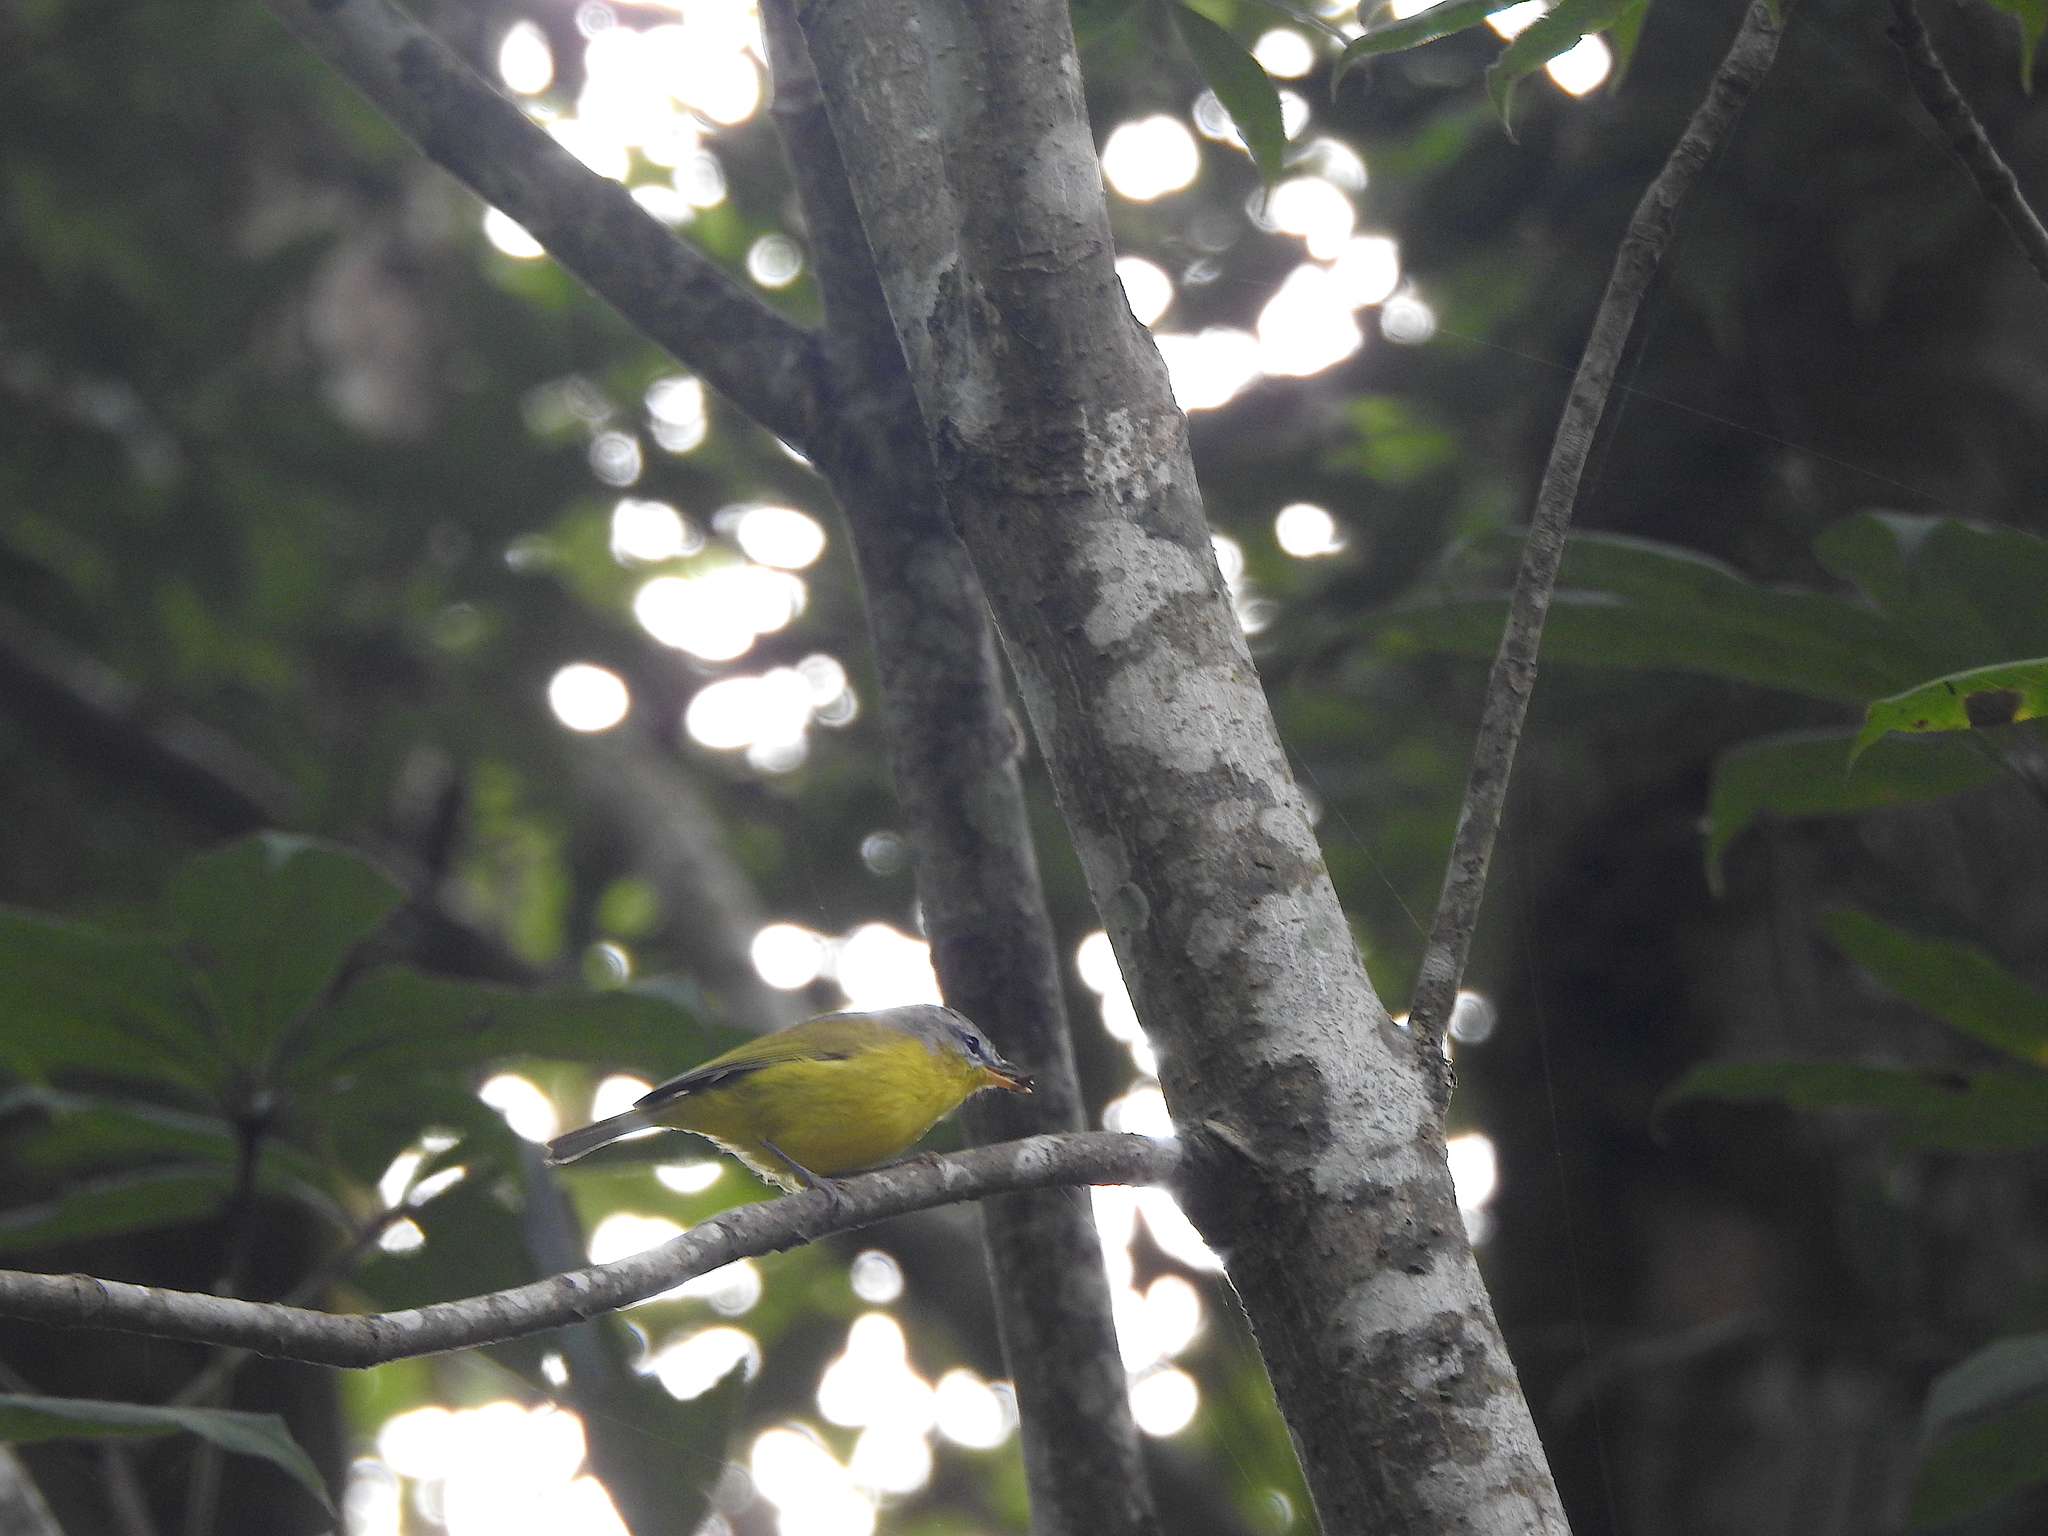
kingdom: Animalia
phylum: Chordata
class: Aves
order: Passeriformes
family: Phylloscopidae
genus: Phylloscopus
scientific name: Phylloscopus xanthoschistos
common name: Grey-hooded warbler
